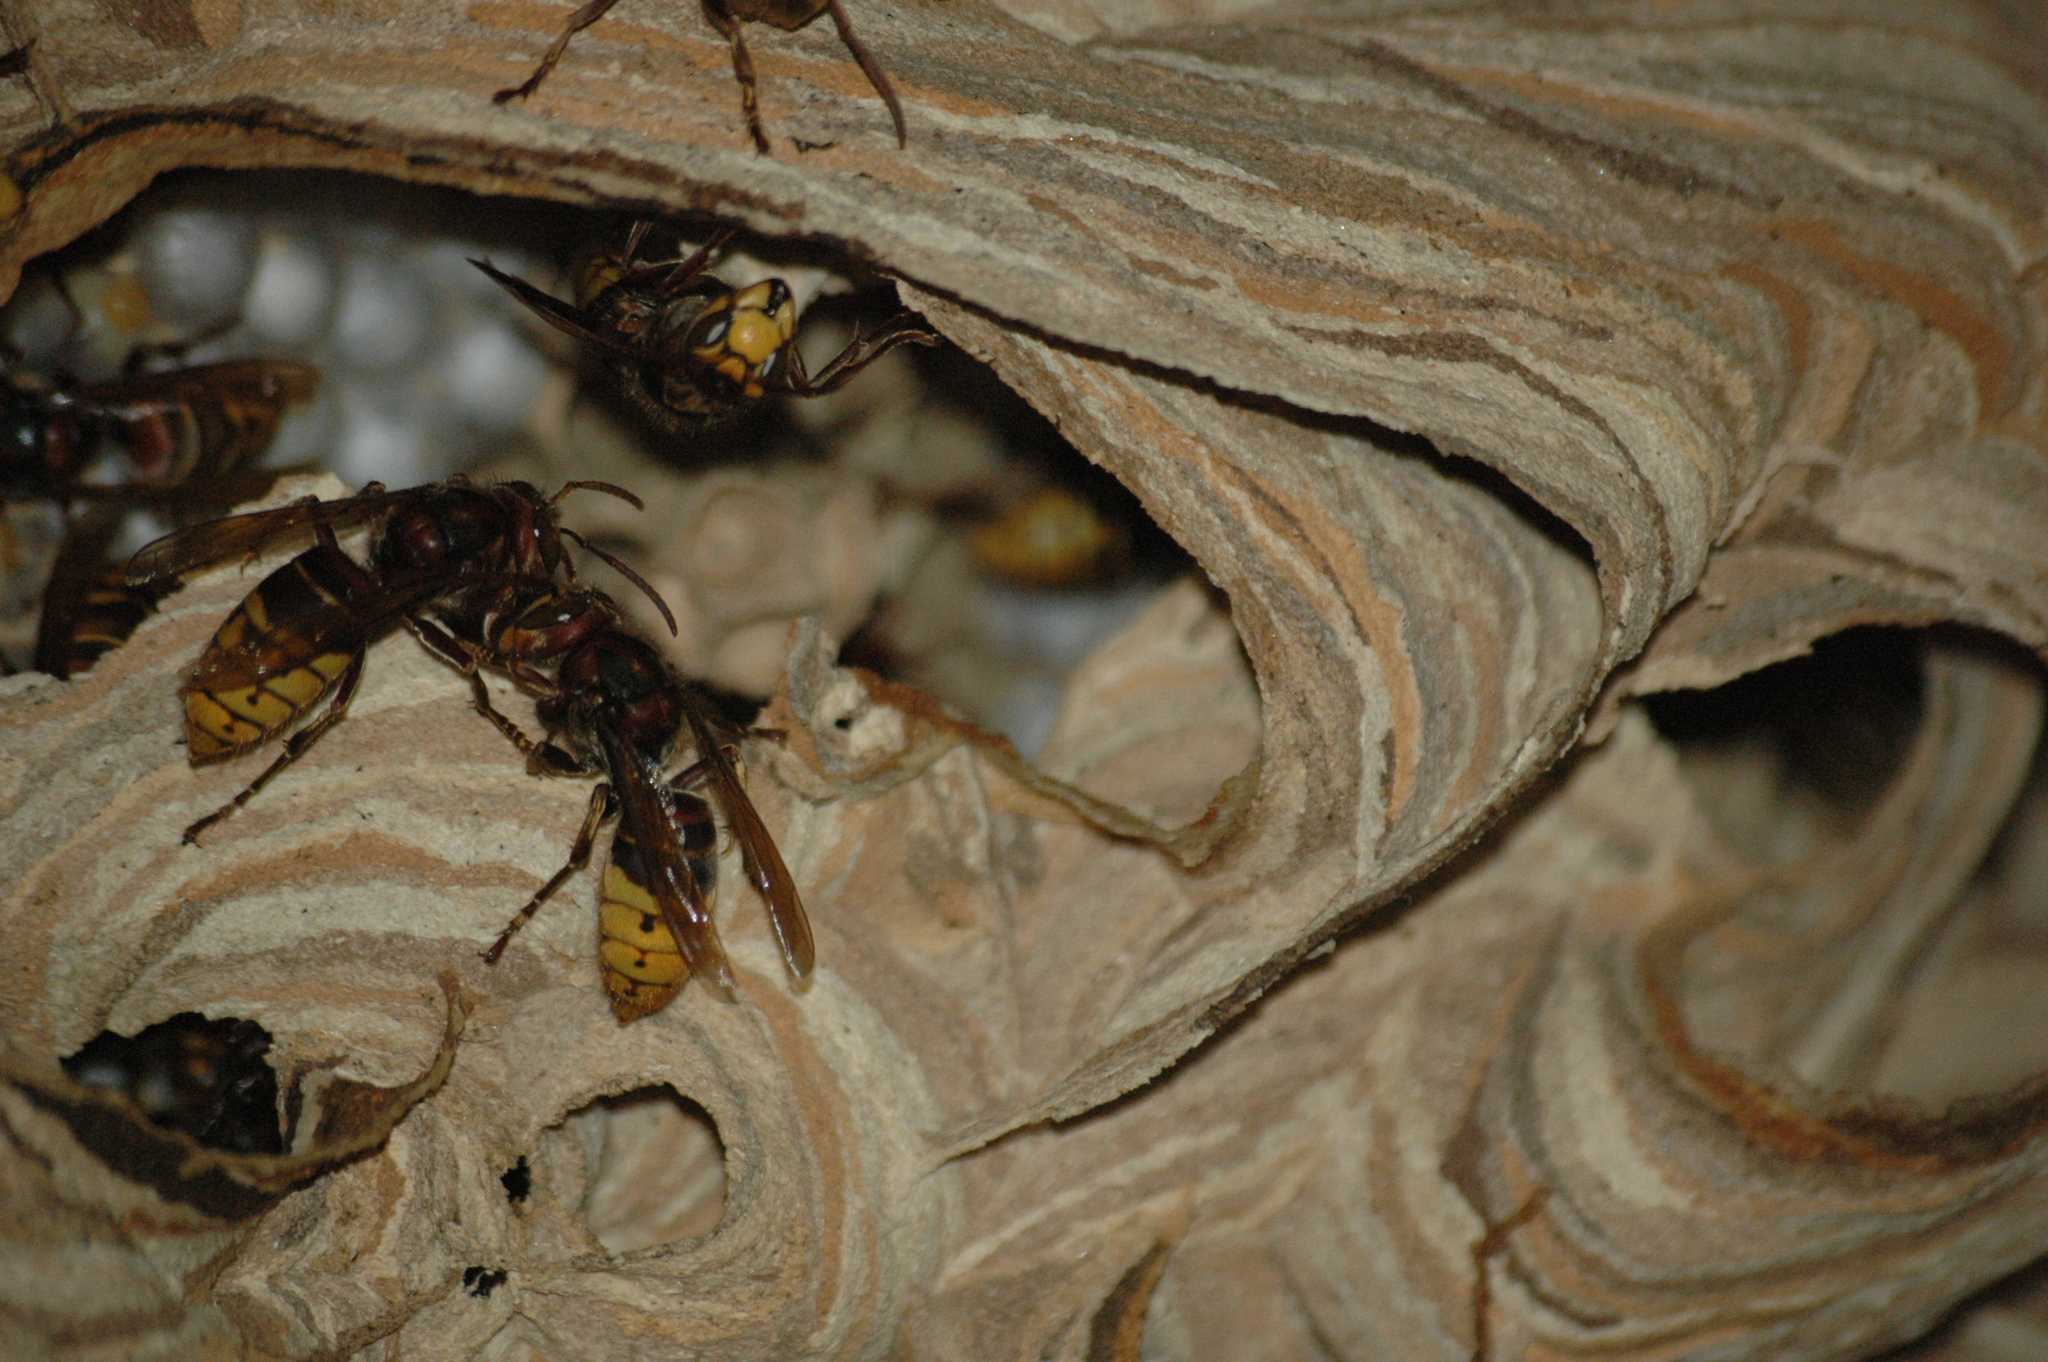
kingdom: Animalia
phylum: Arthropoda
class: Insecta
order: Hymenoptera
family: Vespidae
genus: Vespa
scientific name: Vespa crabro
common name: Hornet
